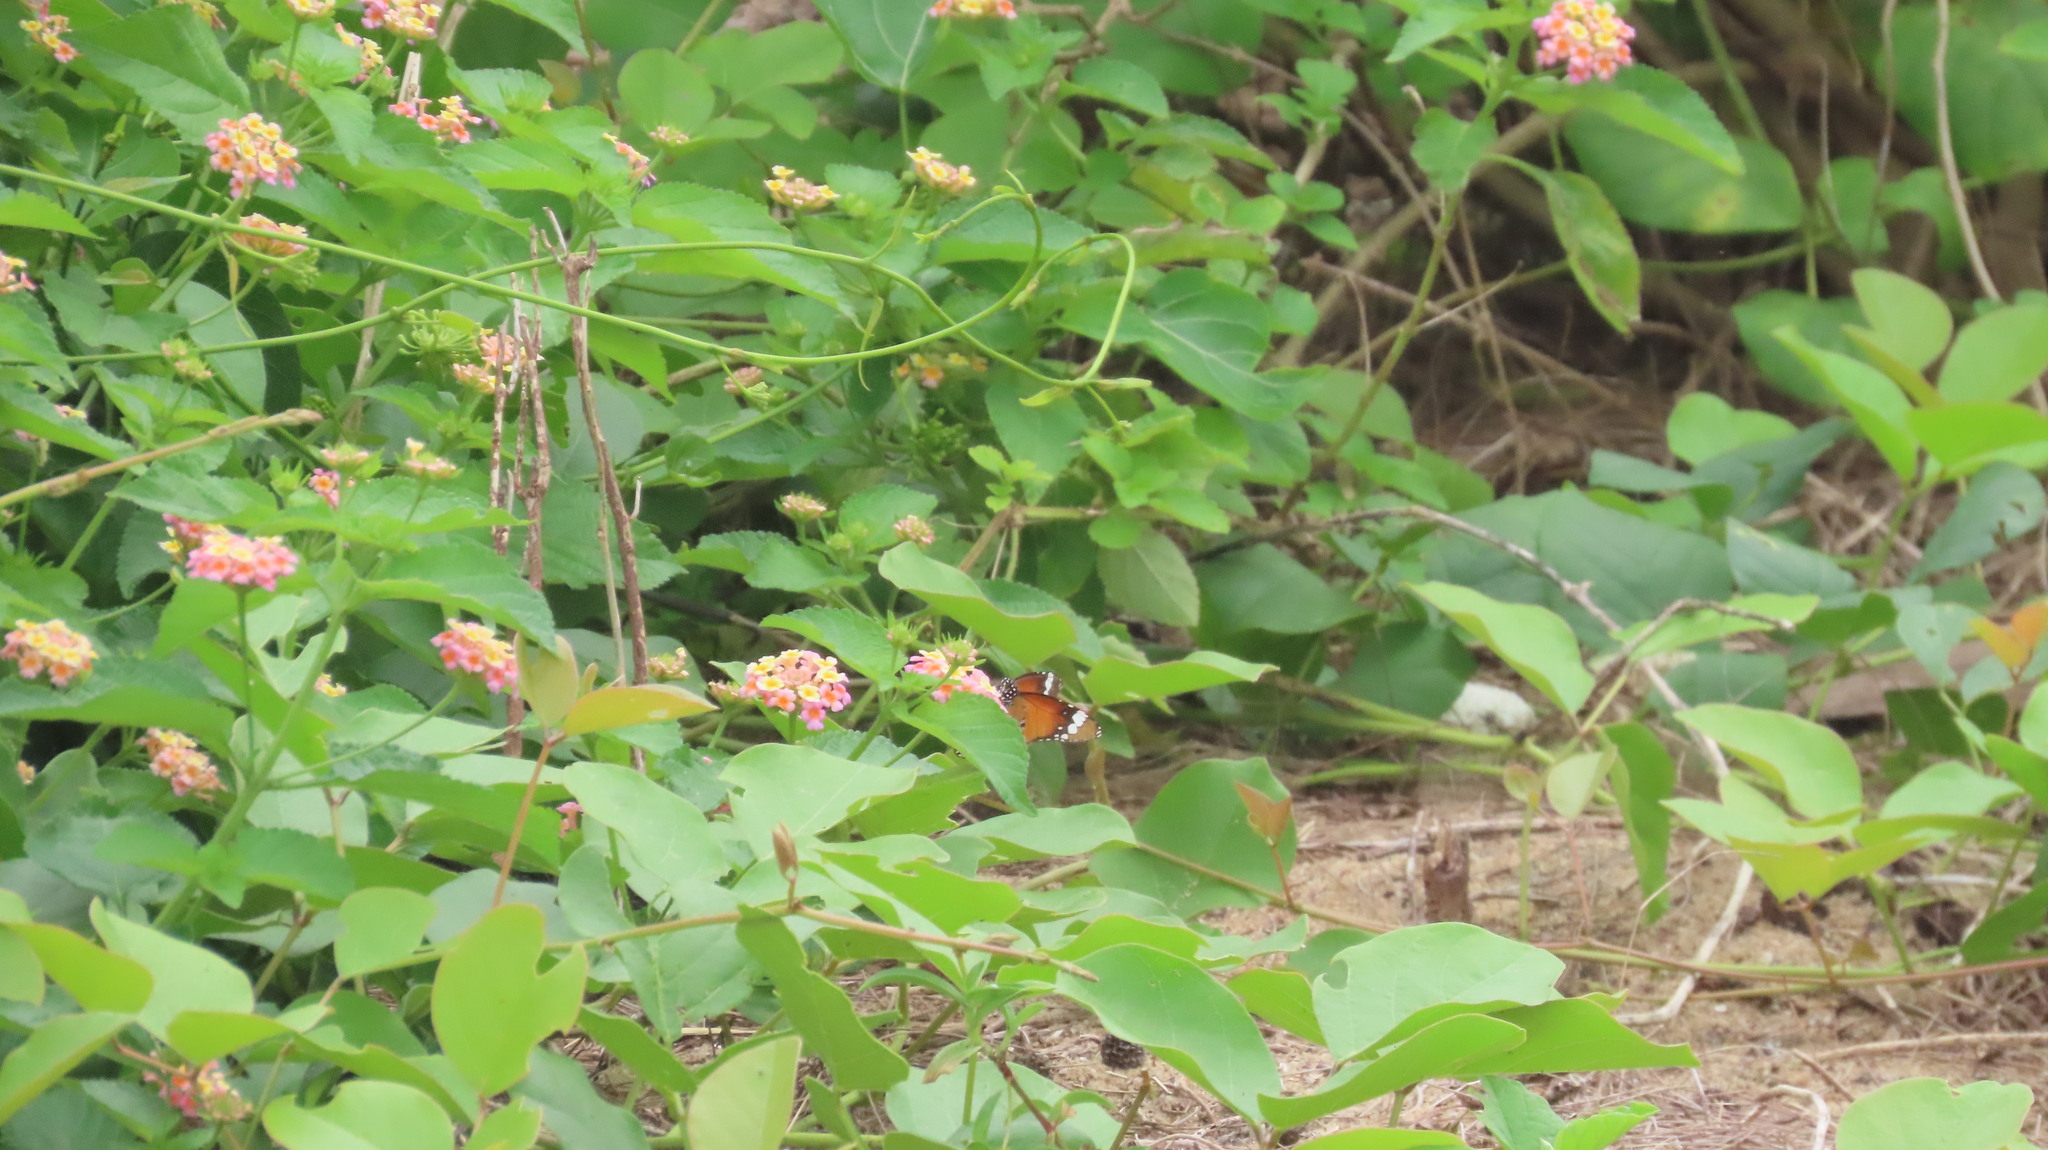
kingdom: Animalia
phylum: Arthropoda
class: Insecta
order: Lepidoptera
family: Nymphalidae
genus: Danaus
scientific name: Danaus chrysippus
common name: Plain tiger
